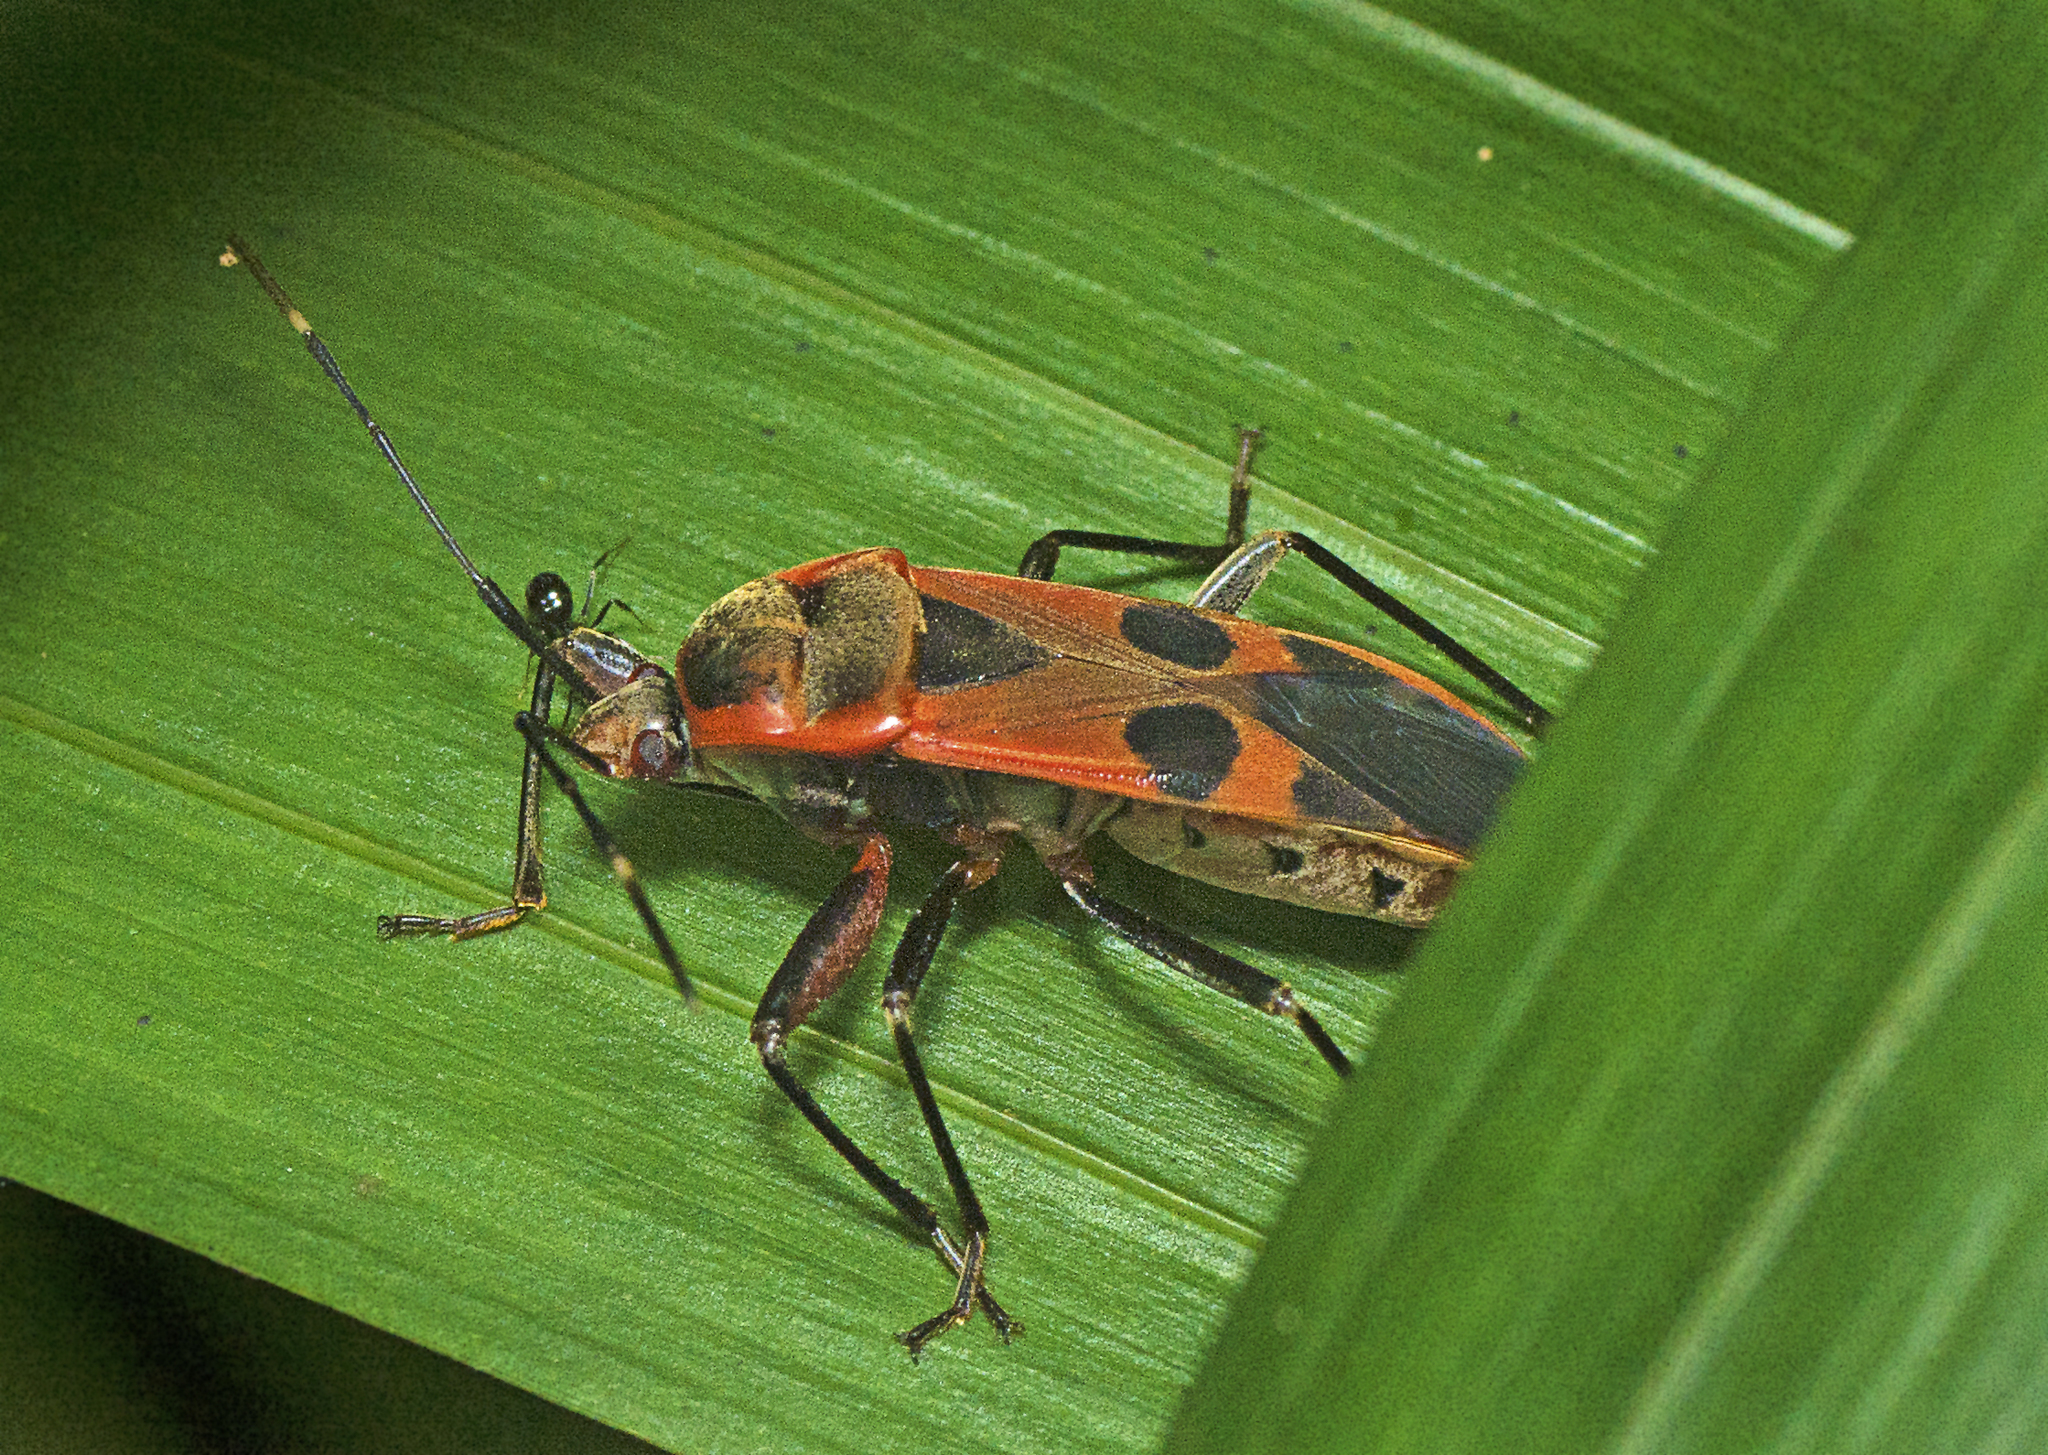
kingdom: Animalia
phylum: Arthropoda
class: Insecta
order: Hemiptera
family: Largidae
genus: Physopelta
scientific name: Physopelta gutta
